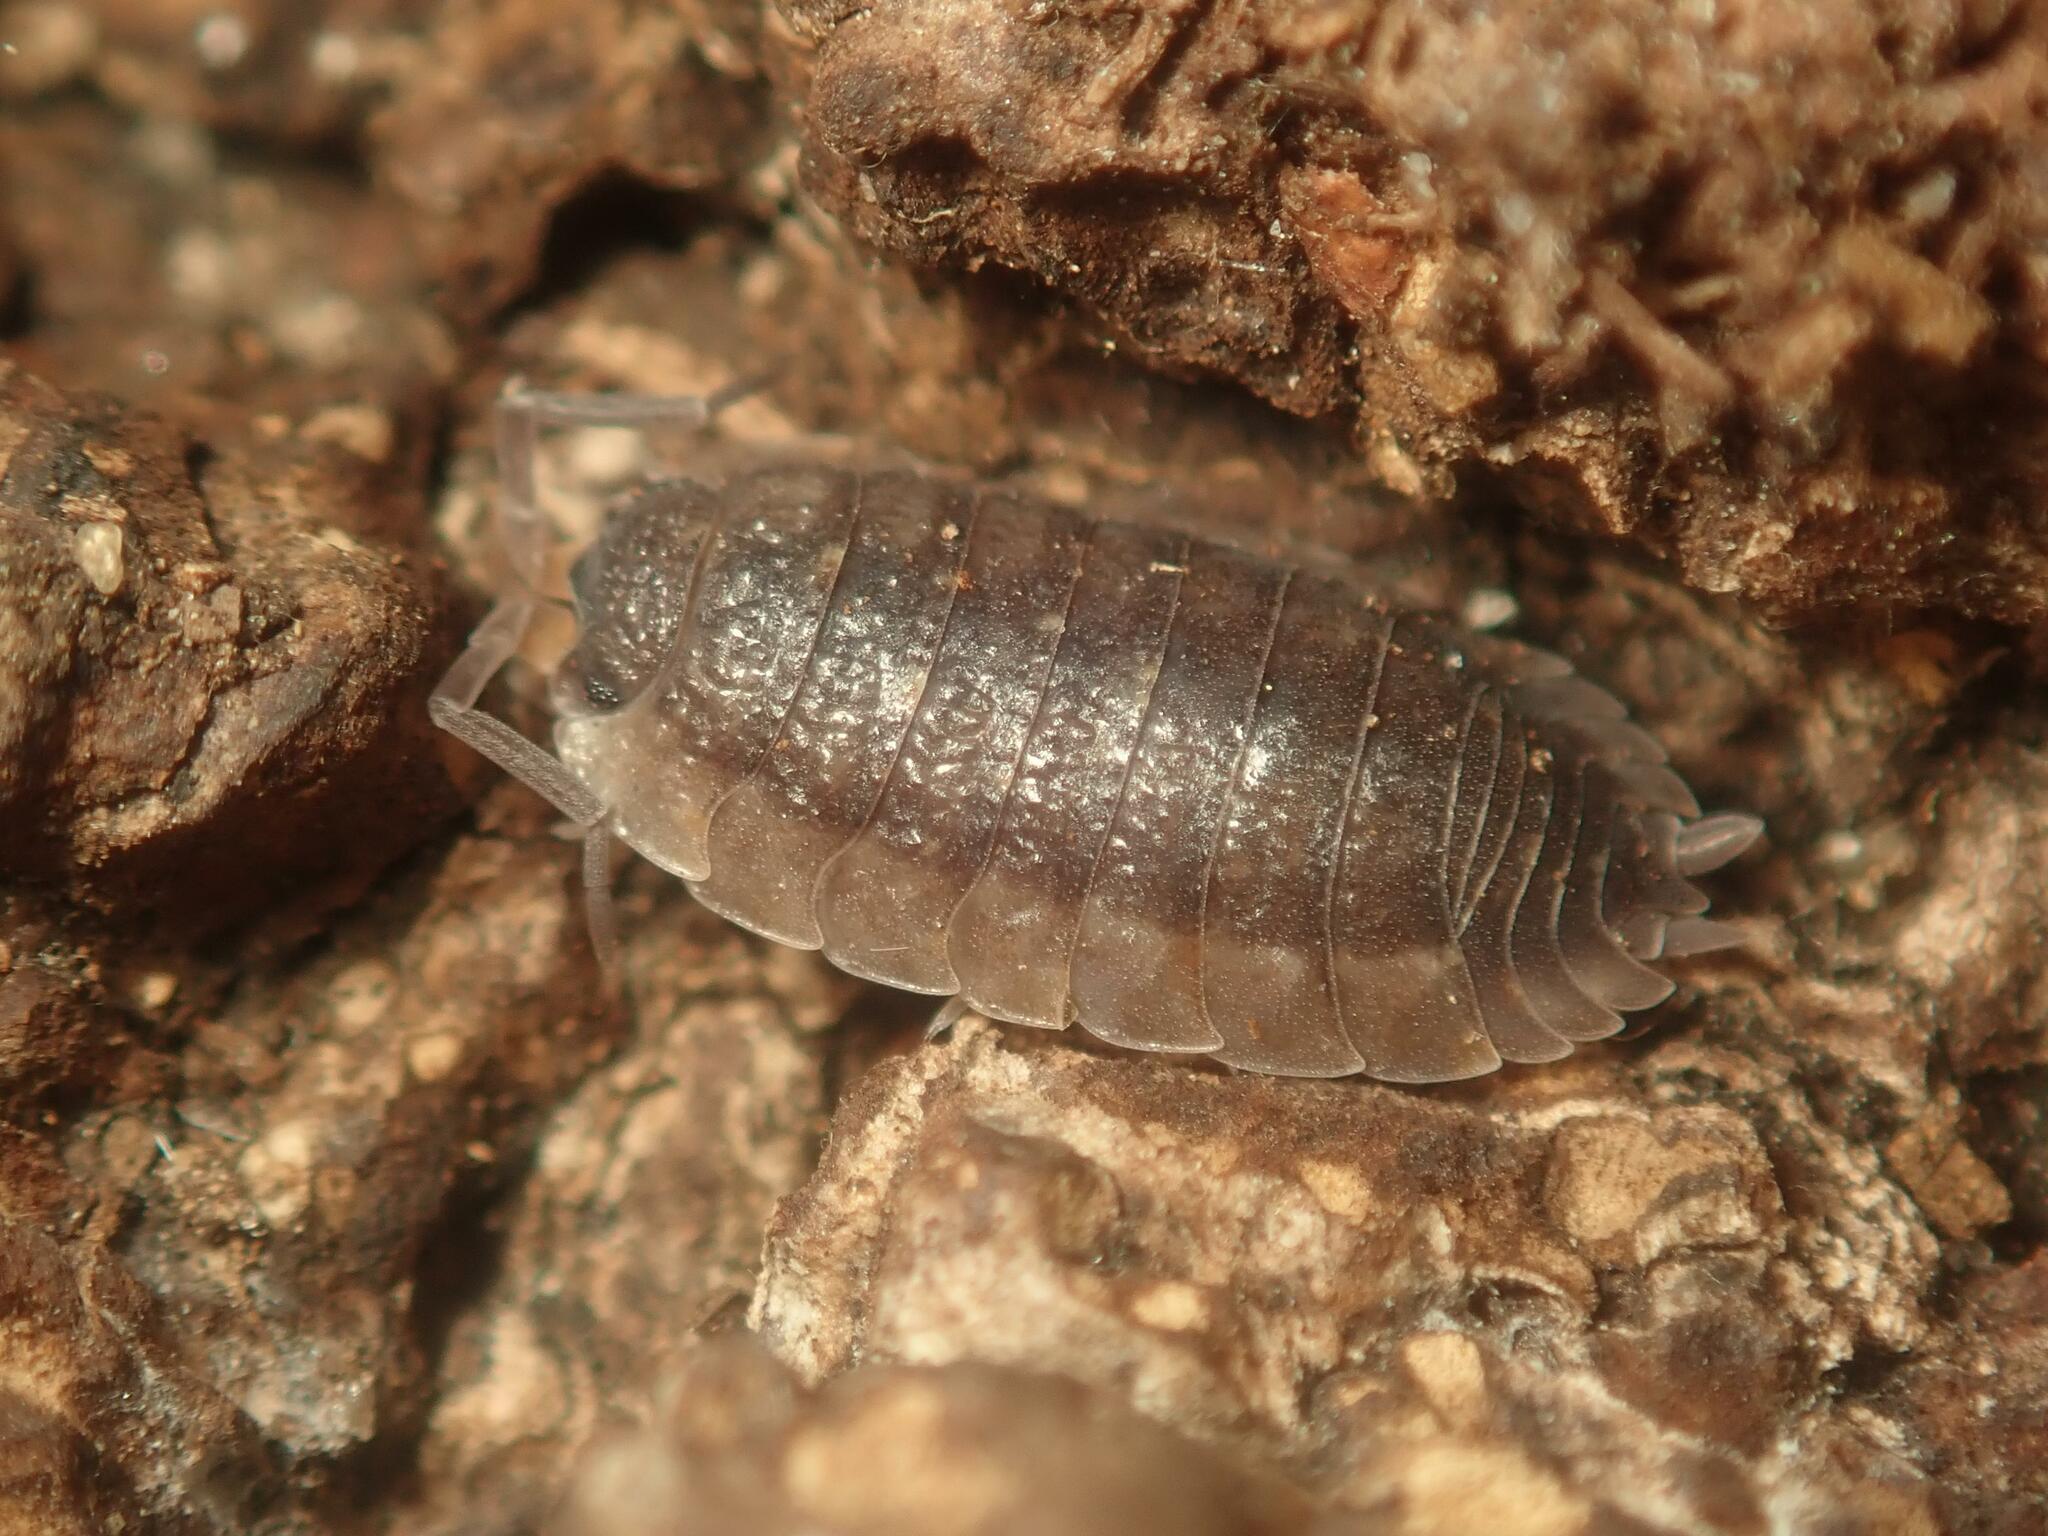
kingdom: Animalia
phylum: Arthropoda
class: Malacostraca
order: Isopoda
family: Porcellionidae
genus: Porcellio
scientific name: Porcellio scaber
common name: Common rough woodlouse
